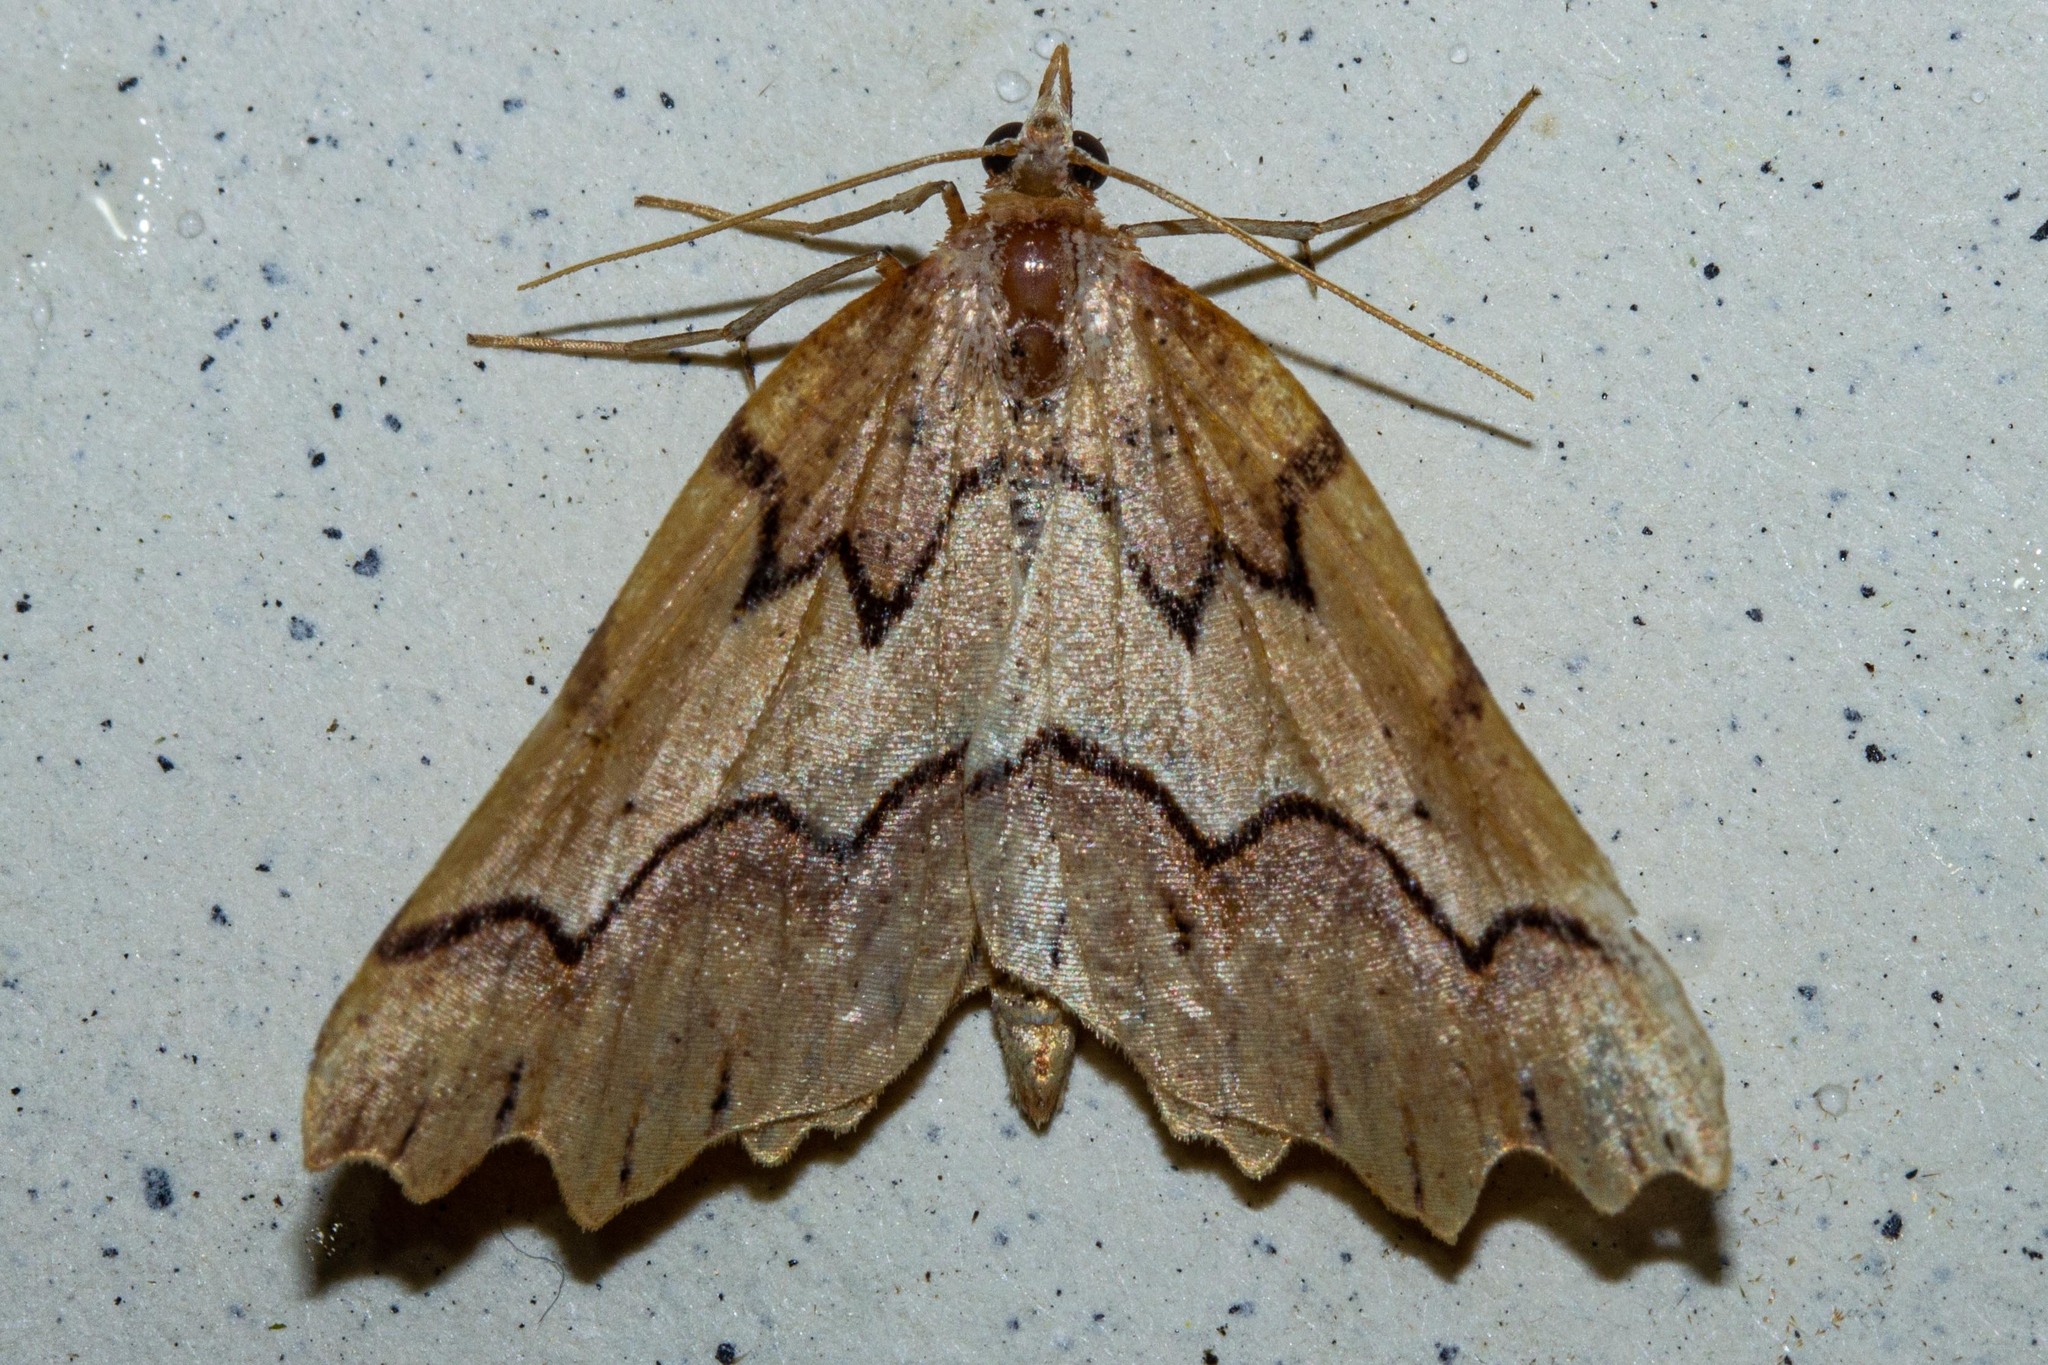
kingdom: Animalia
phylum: Arthropoda
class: Insecta
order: Lepidoptera
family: Geometridae
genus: Ischalis
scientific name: Ischalis fortinata
